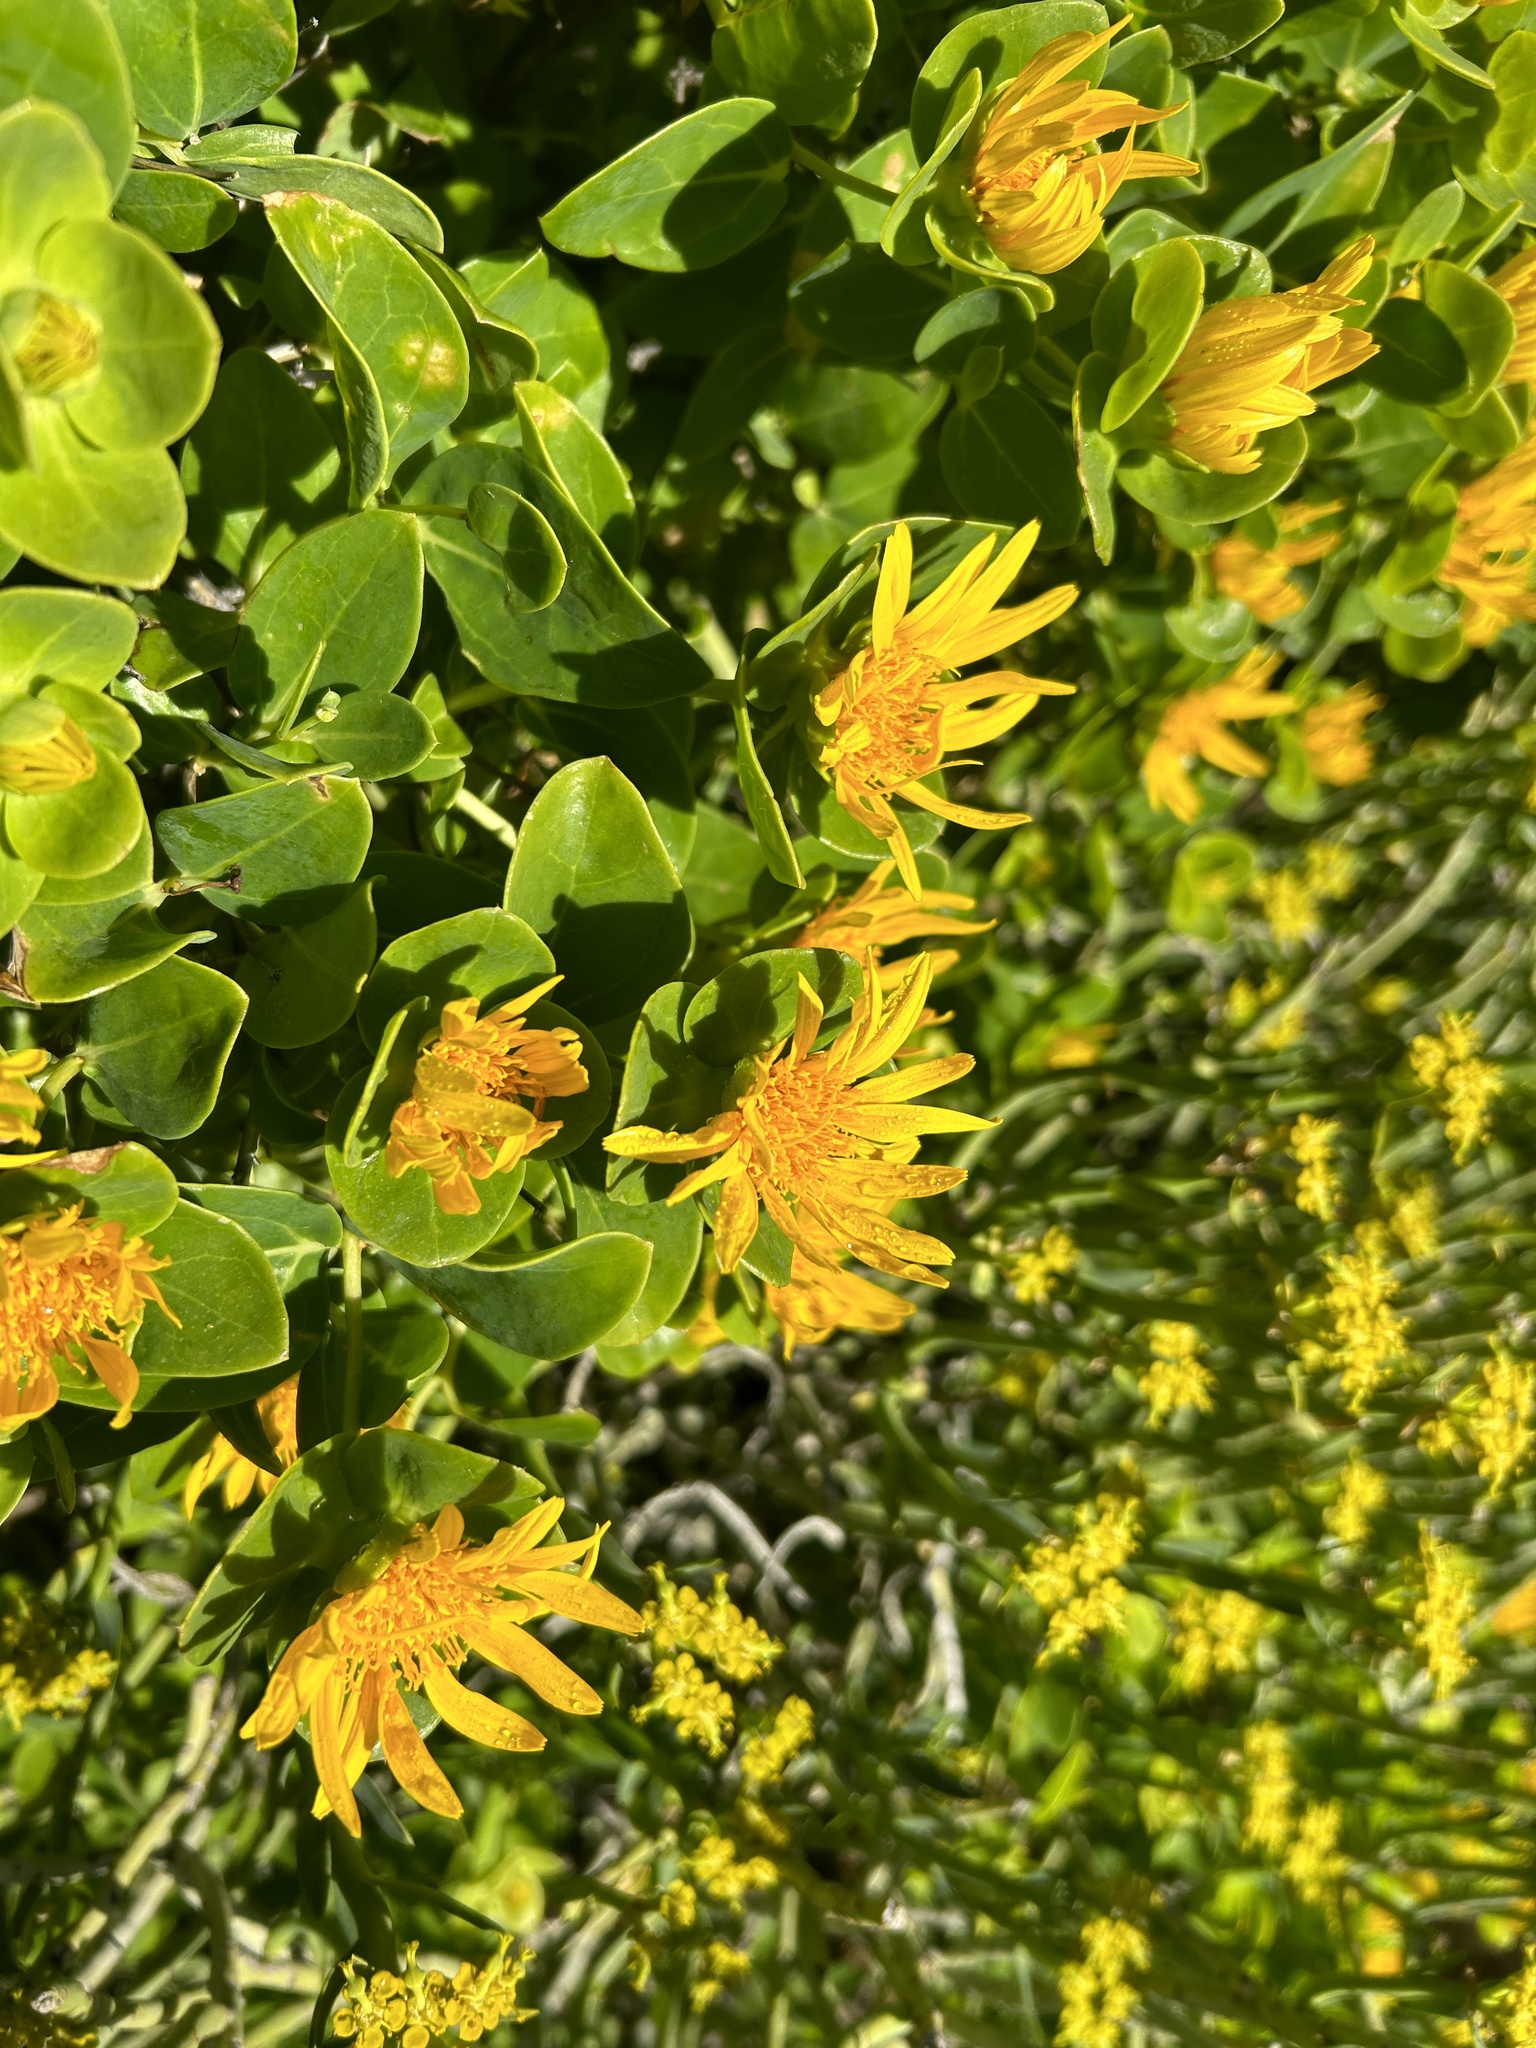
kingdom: Plantae
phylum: Tracheophyta
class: Magnoliopsida
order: Asterales
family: Asteraceae
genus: Didelta
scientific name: Didelta spinosa
